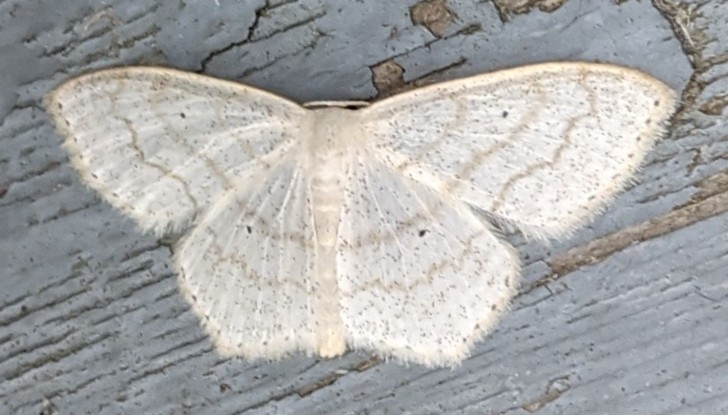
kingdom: Animalia
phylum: Arthropoda
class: Insecta
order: Lepidoptera
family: Geometridae
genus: Scopula
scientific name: Scopula limboundata
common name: Large lace border
